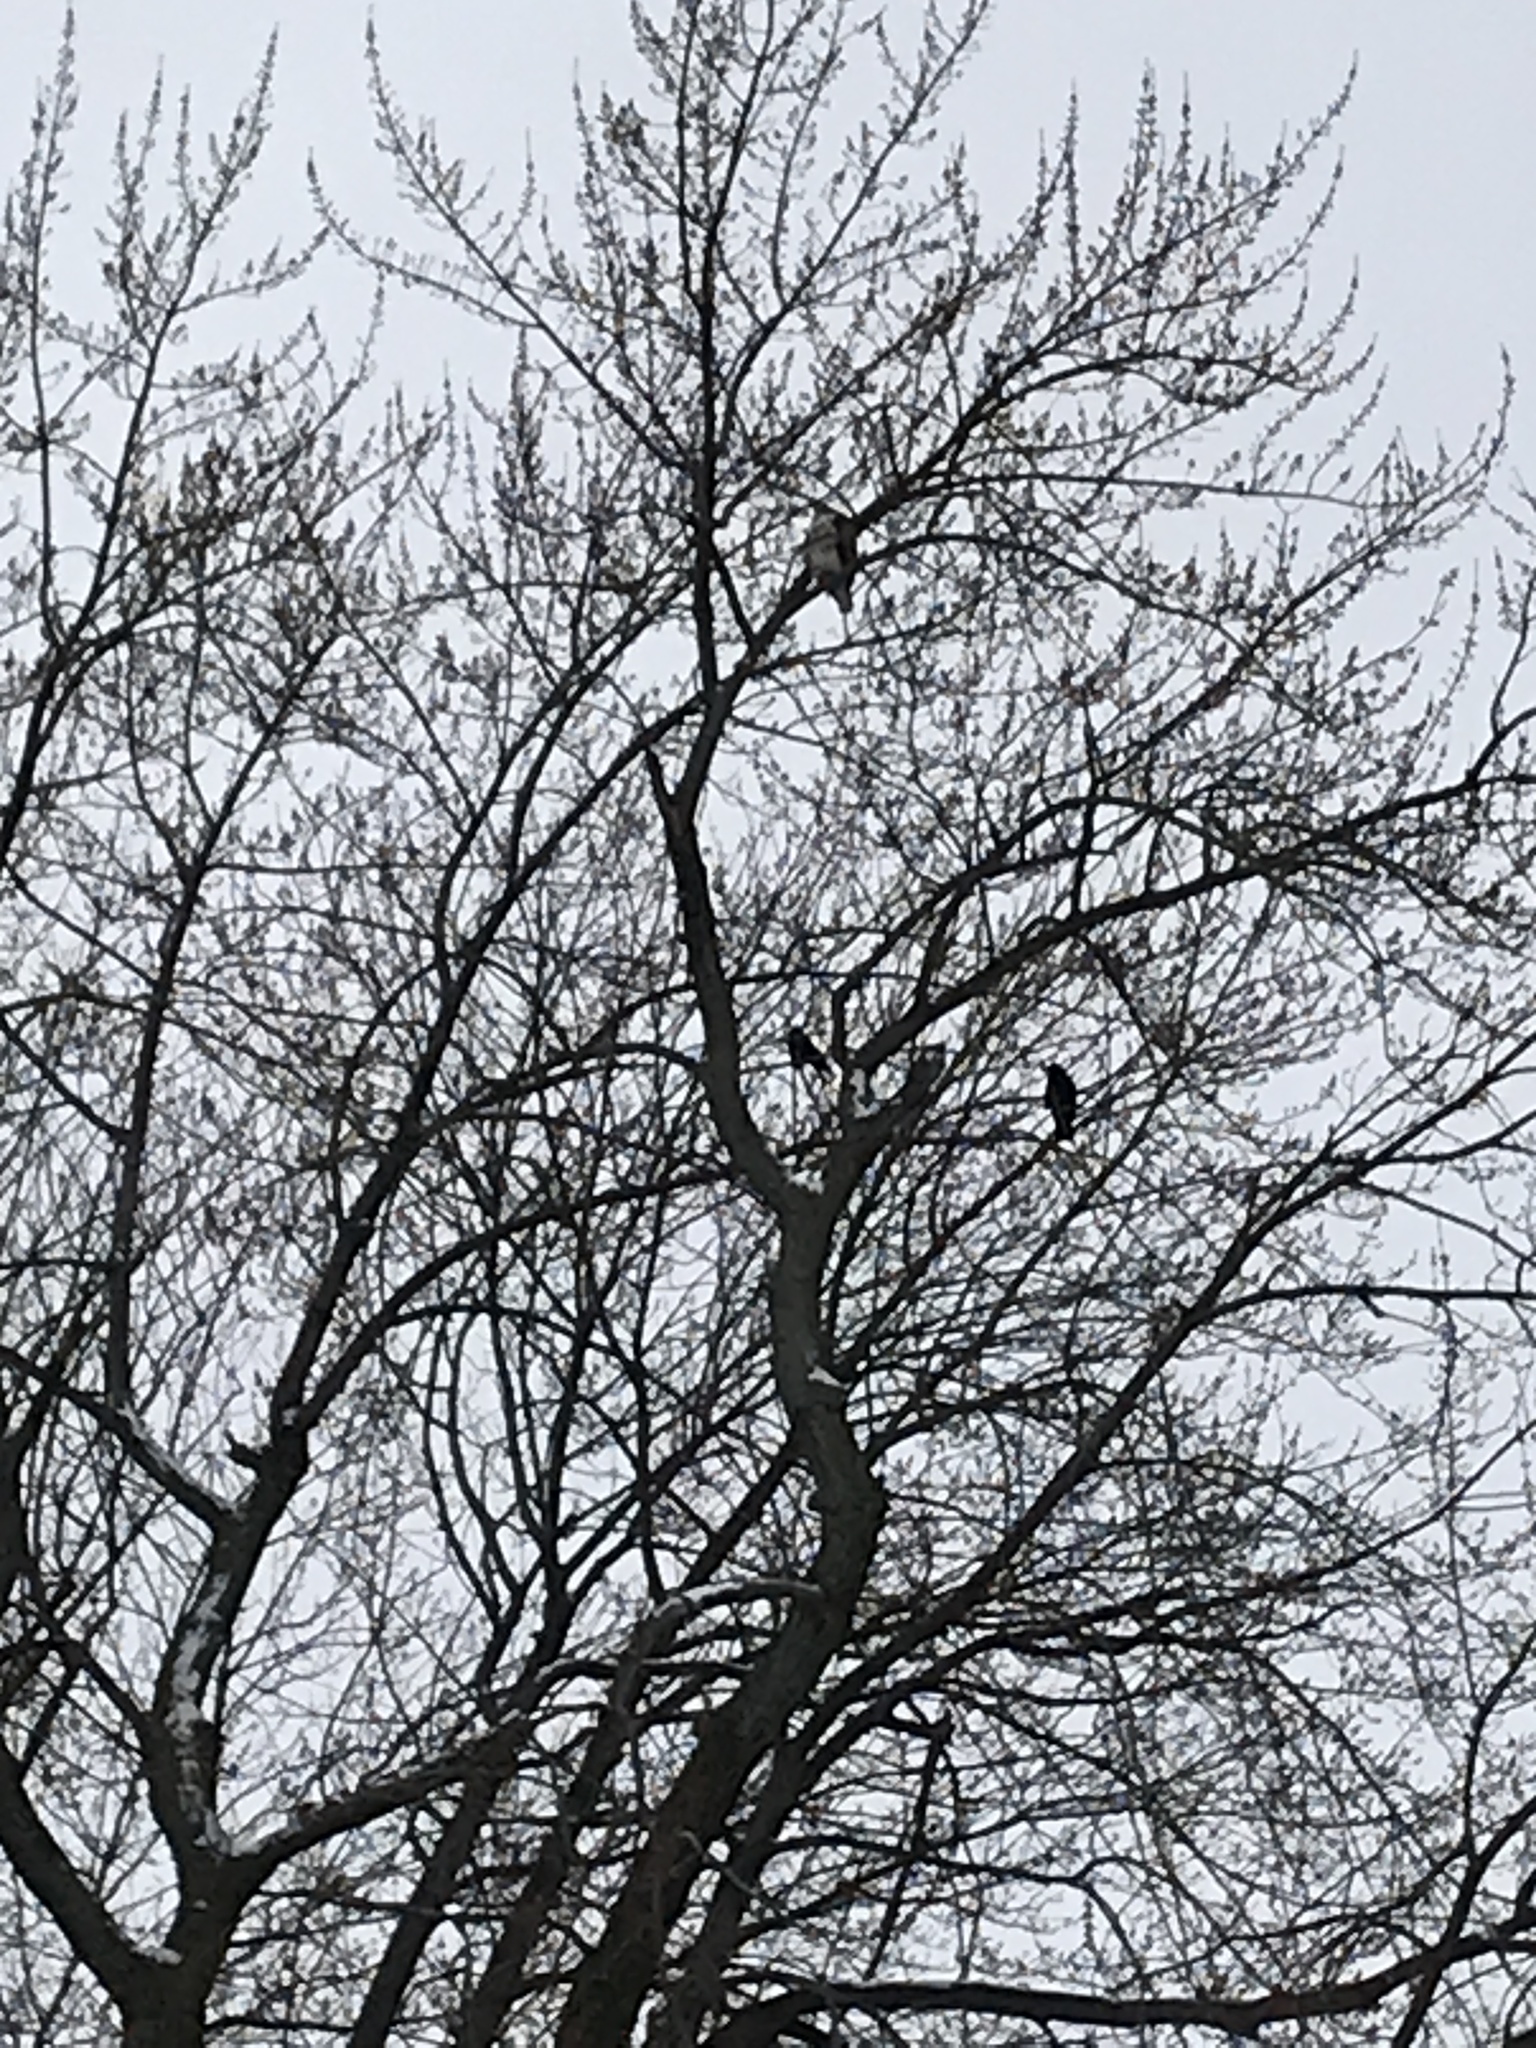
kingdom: Animalia
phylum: Chordata
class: Aves
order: Passeriformes
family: Corvidae
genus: Corvus
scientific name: Corvus brachyrhynchos
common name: American crow
